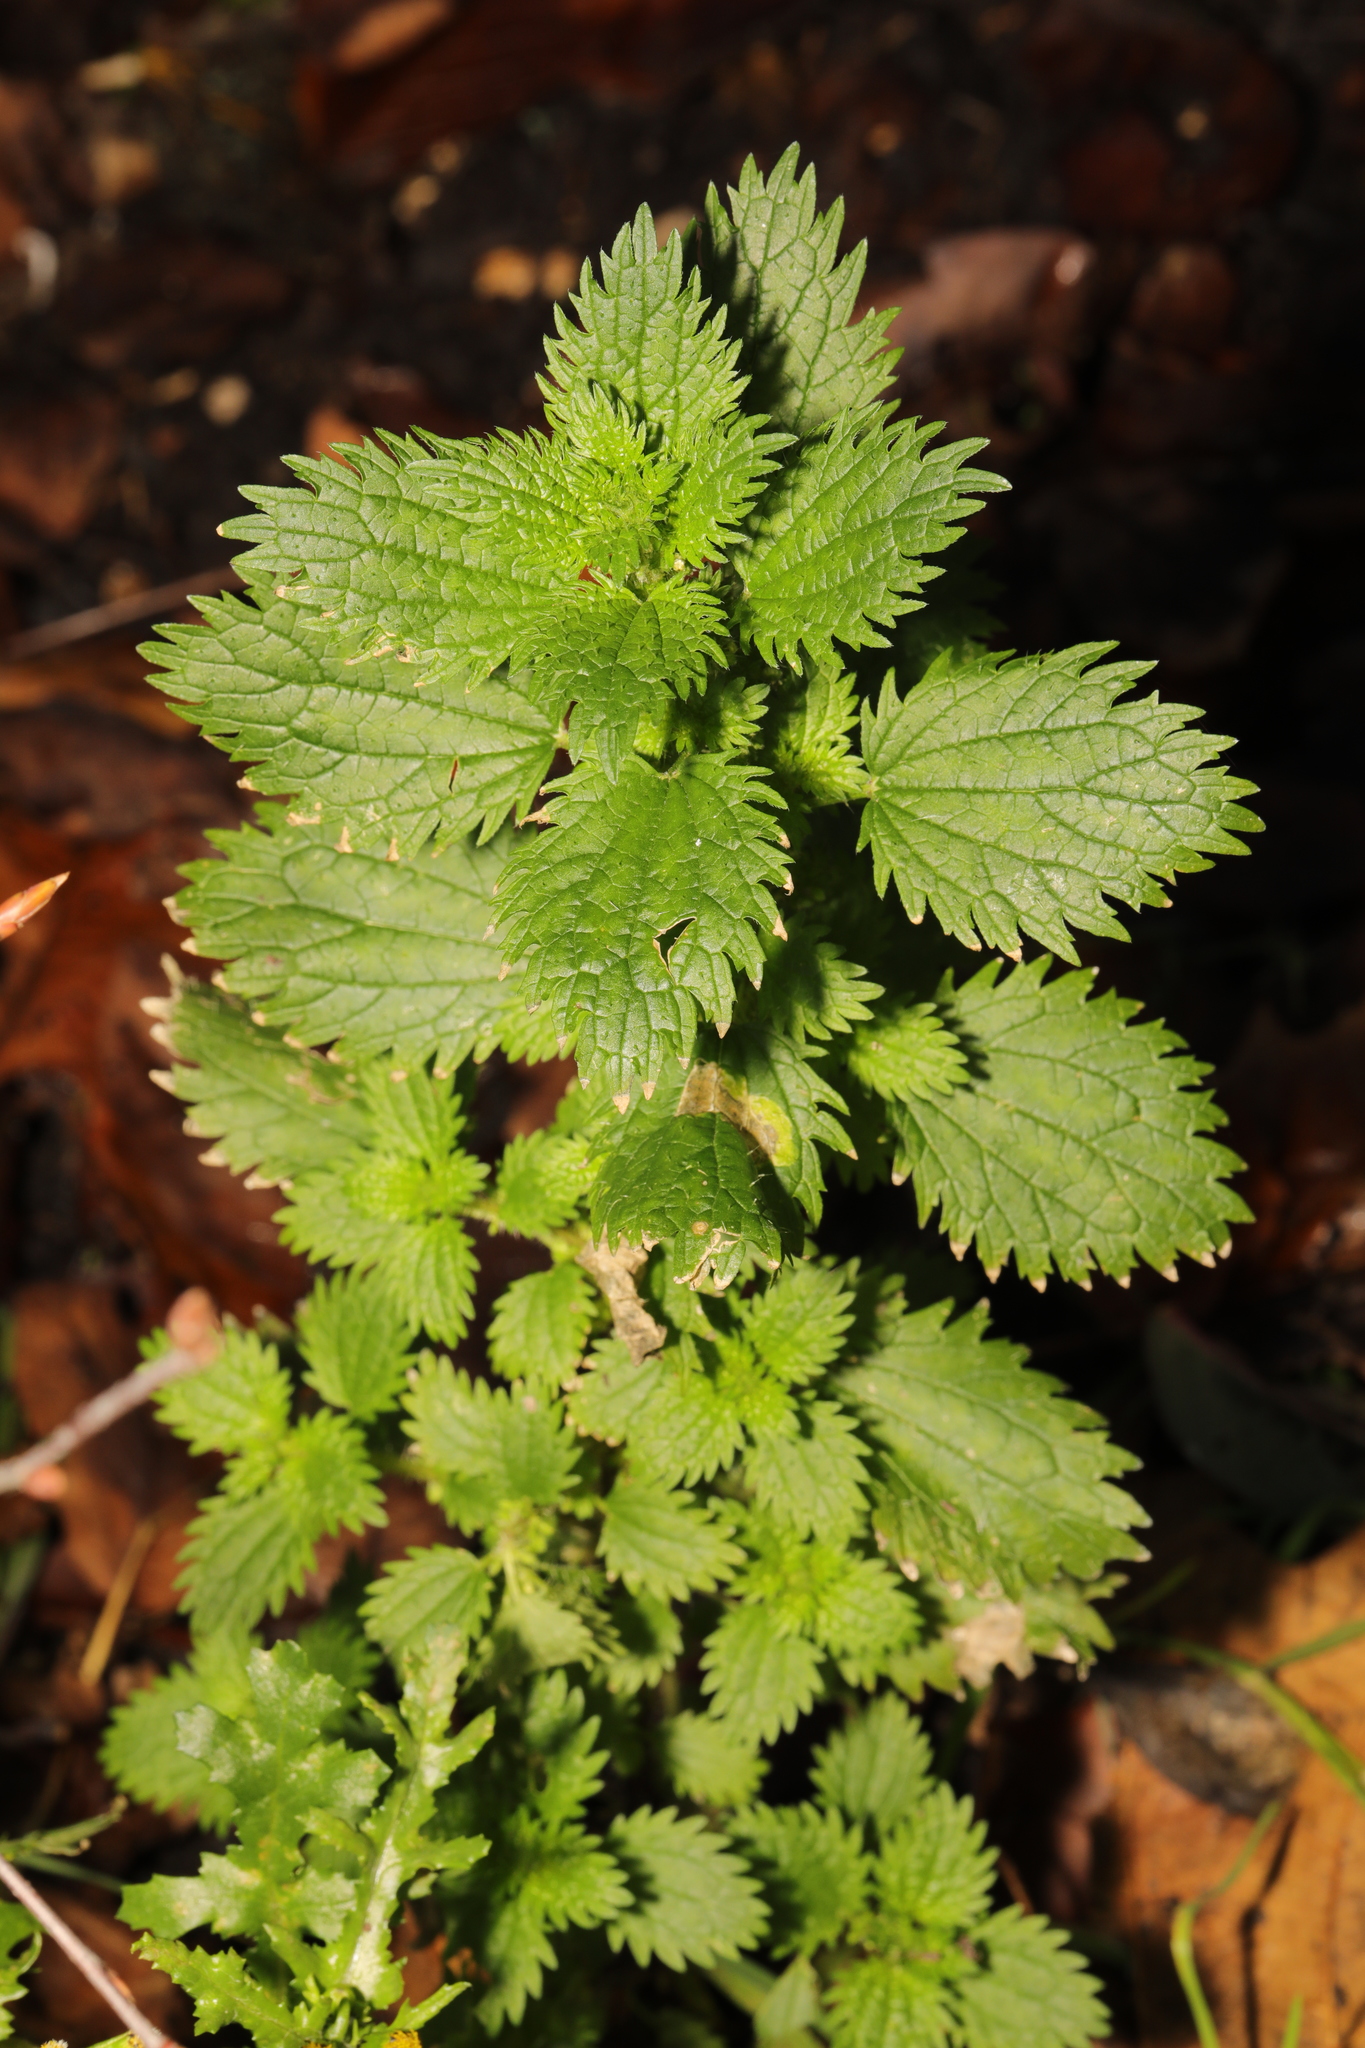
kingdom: Plantae
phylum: Tracheophyta
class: Magnoliopsida
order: Rosales
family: Urticaceae
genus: Urtica
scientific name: Urtica dioica
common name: Common nettle
